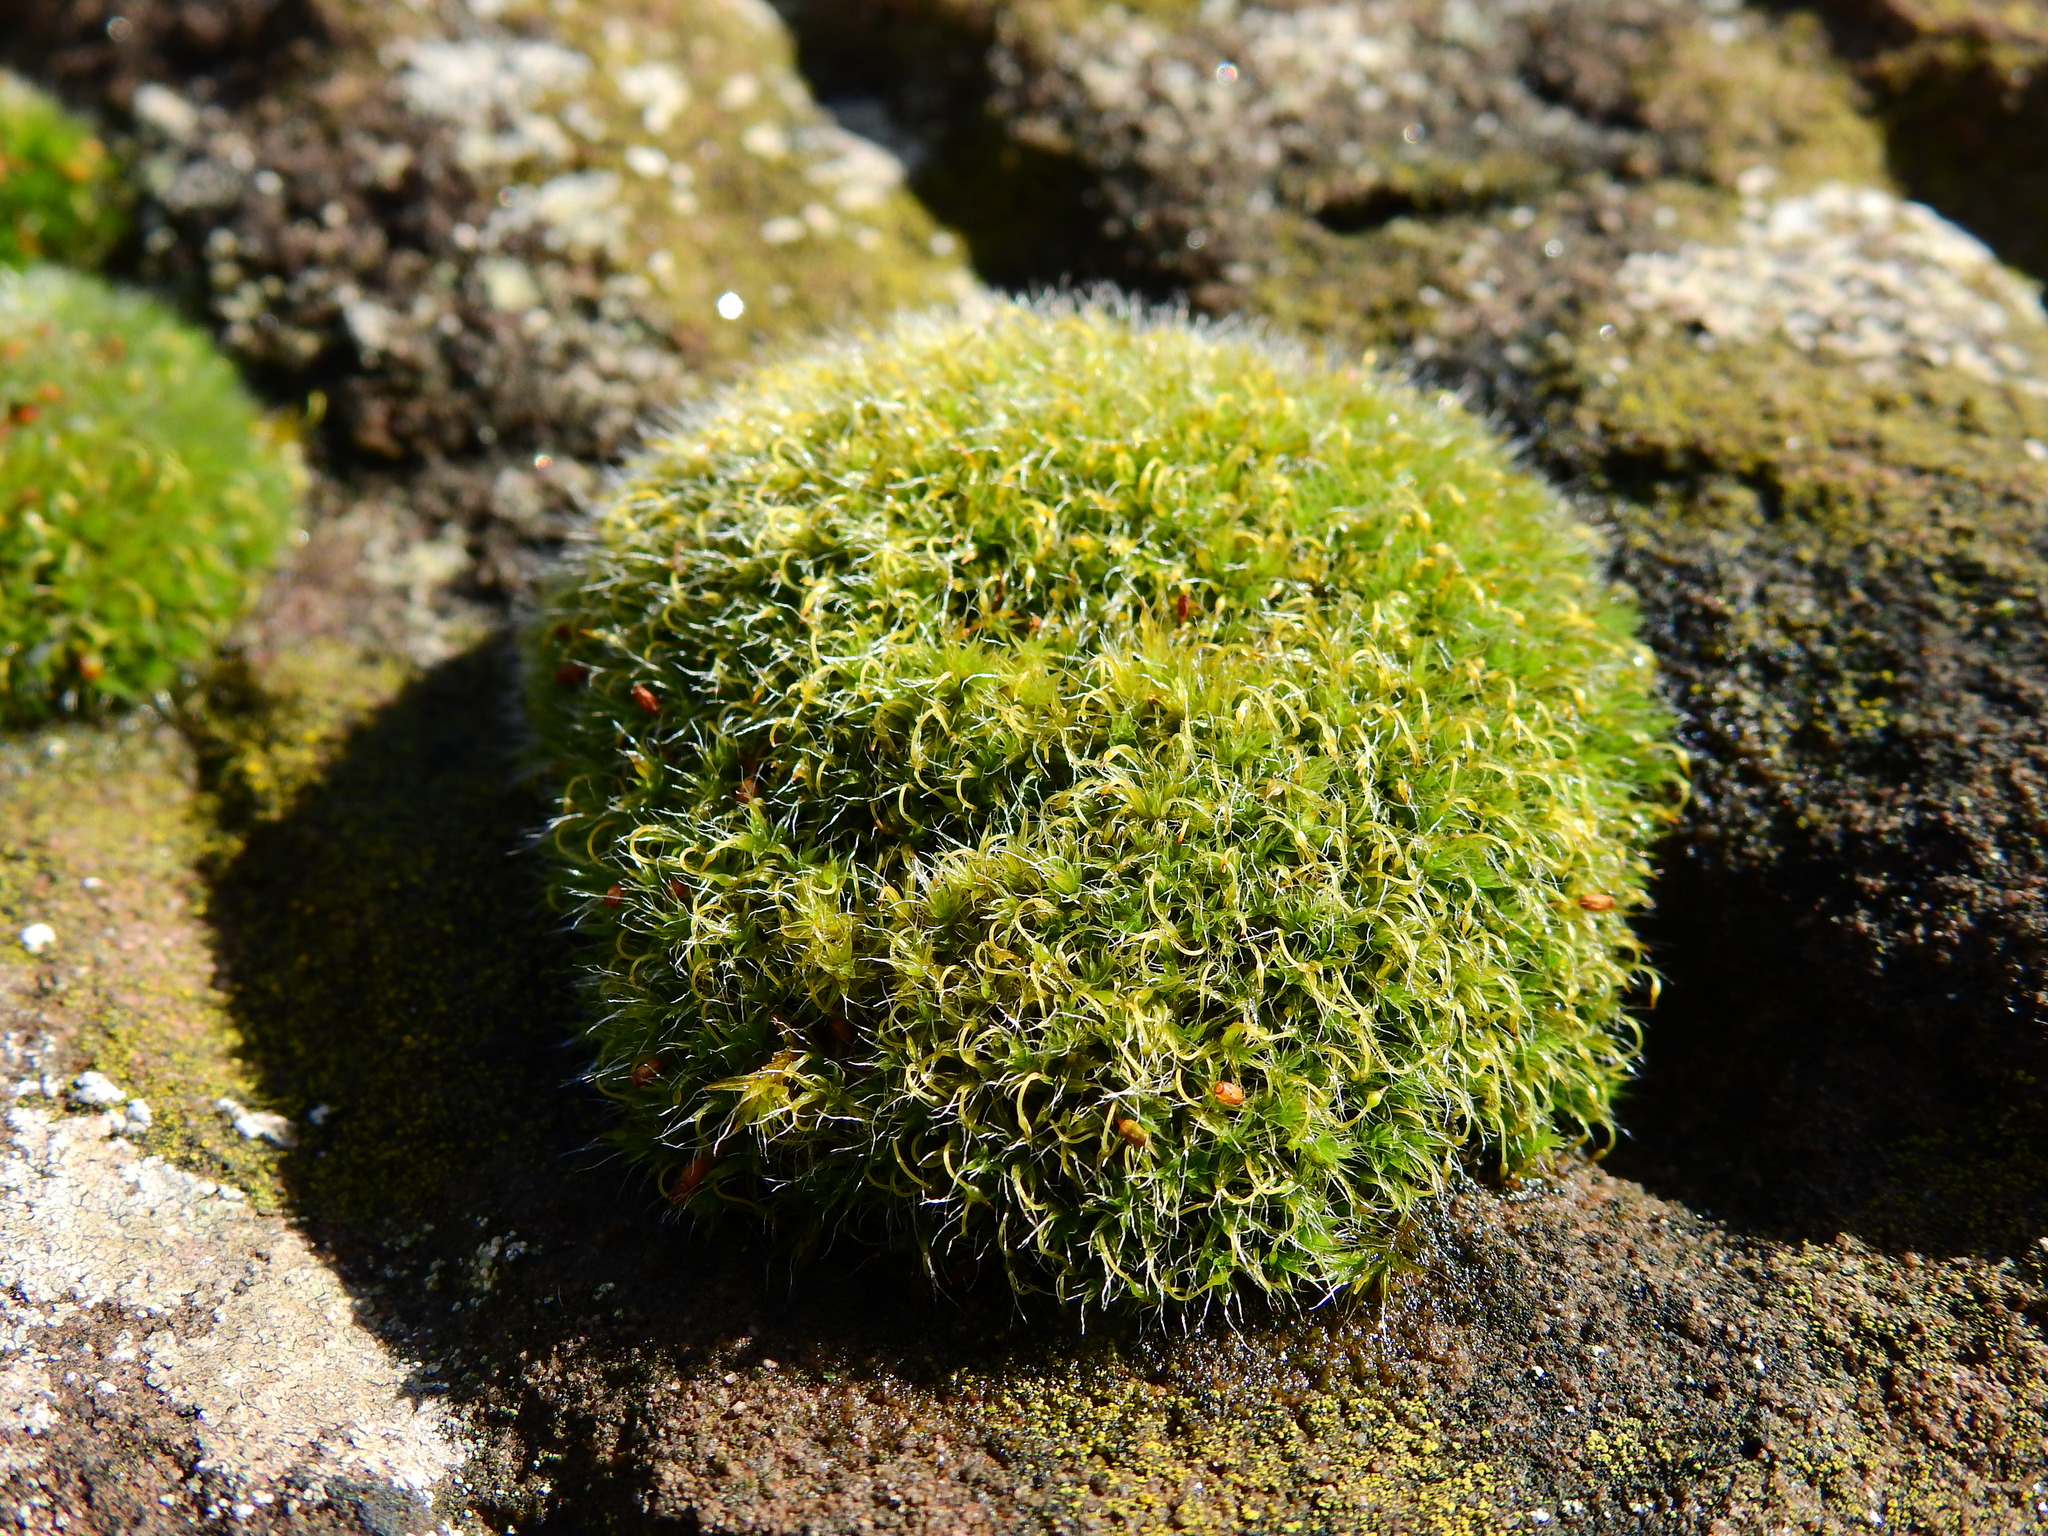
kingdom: Plantae
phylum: Bryophyta
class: Bryopsida
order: Grimmiales
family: Grimmiaceae
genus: Grimmia
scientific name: Grimmia pulvinata
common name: Grey-cushioned grimmia
